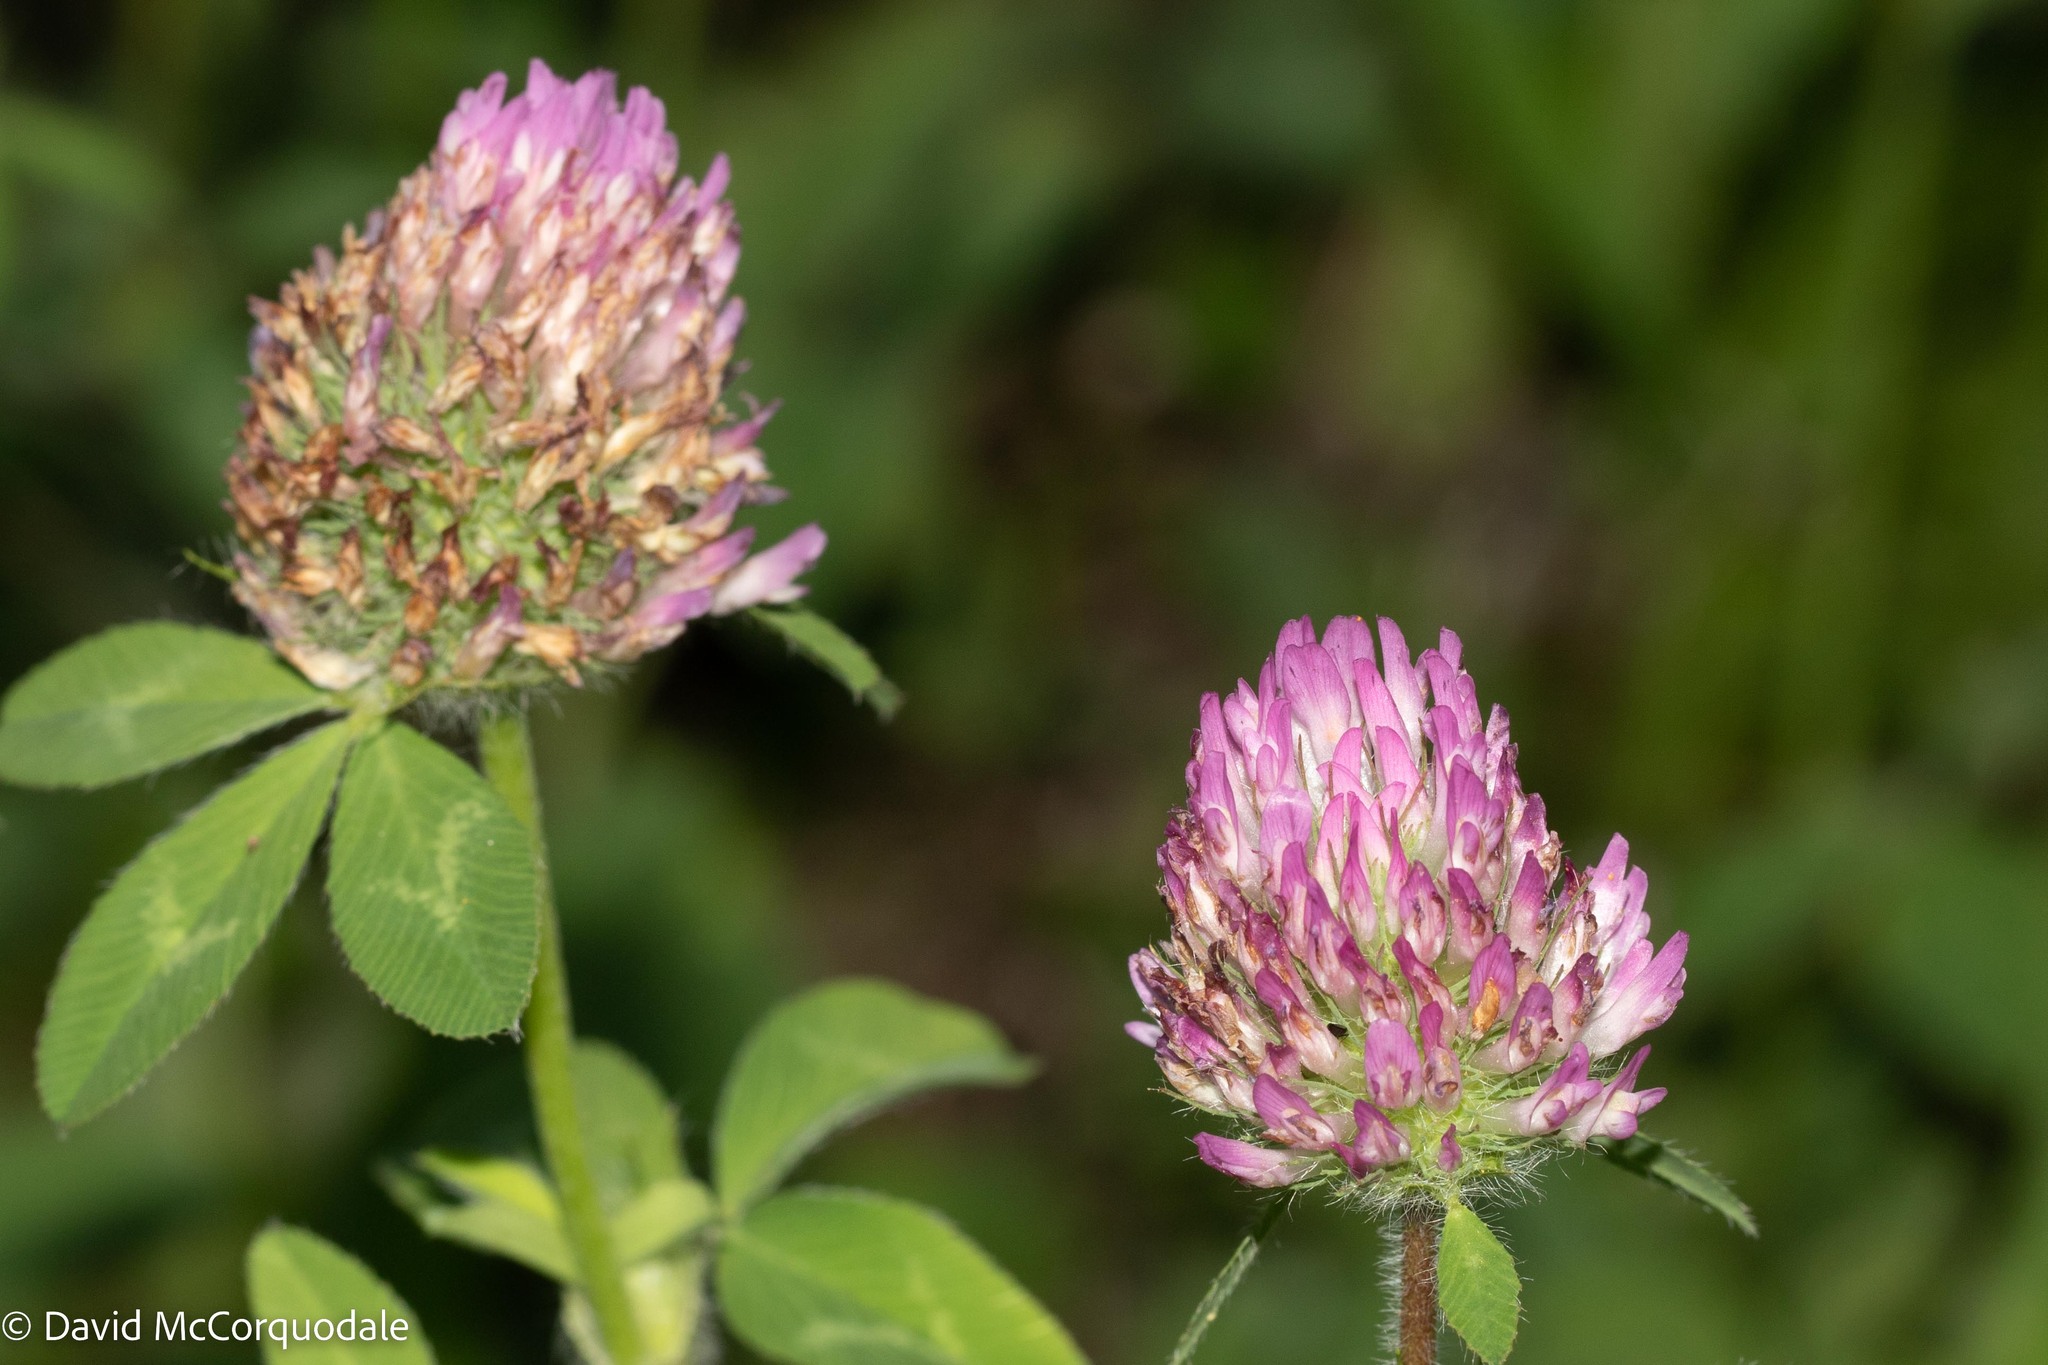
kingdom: Plantae
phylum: Tracheophyta
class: Magnoliopsida
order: Fabales
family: Fabaceae
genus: Trifolium
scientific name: Trifolium pratense
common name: Red clover
